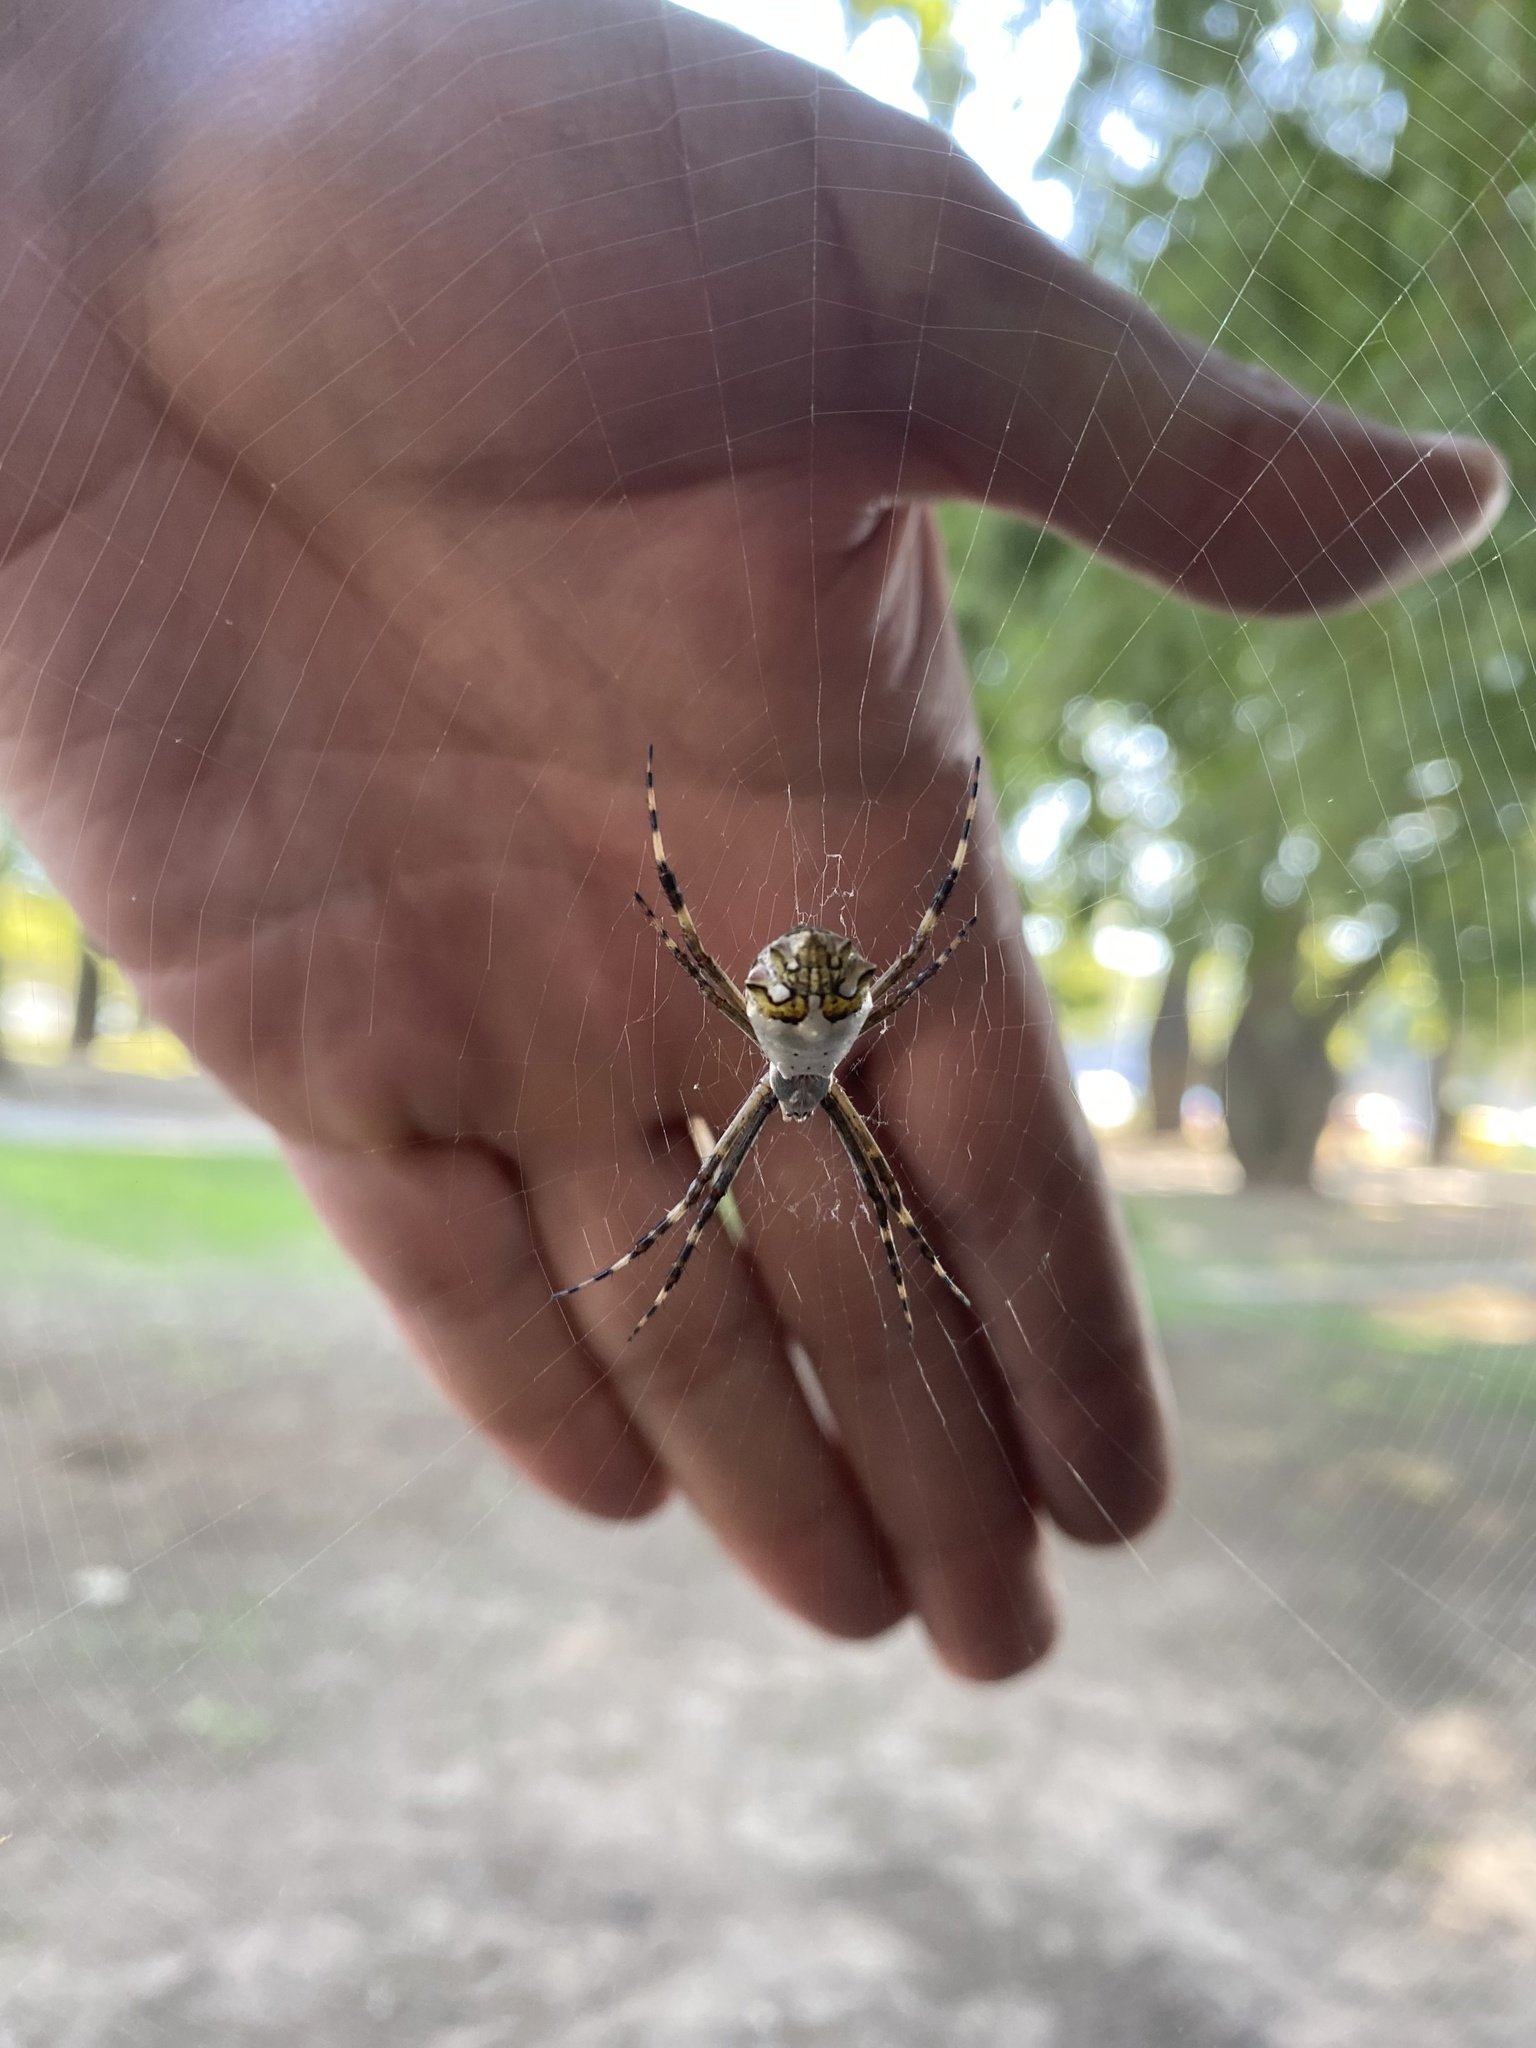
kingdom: Animalia
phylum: Arthropoda
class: Arachnida
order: Araneae
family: Araneidae
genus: Argiope
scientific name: Argiope argentata
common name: Orb weavers
